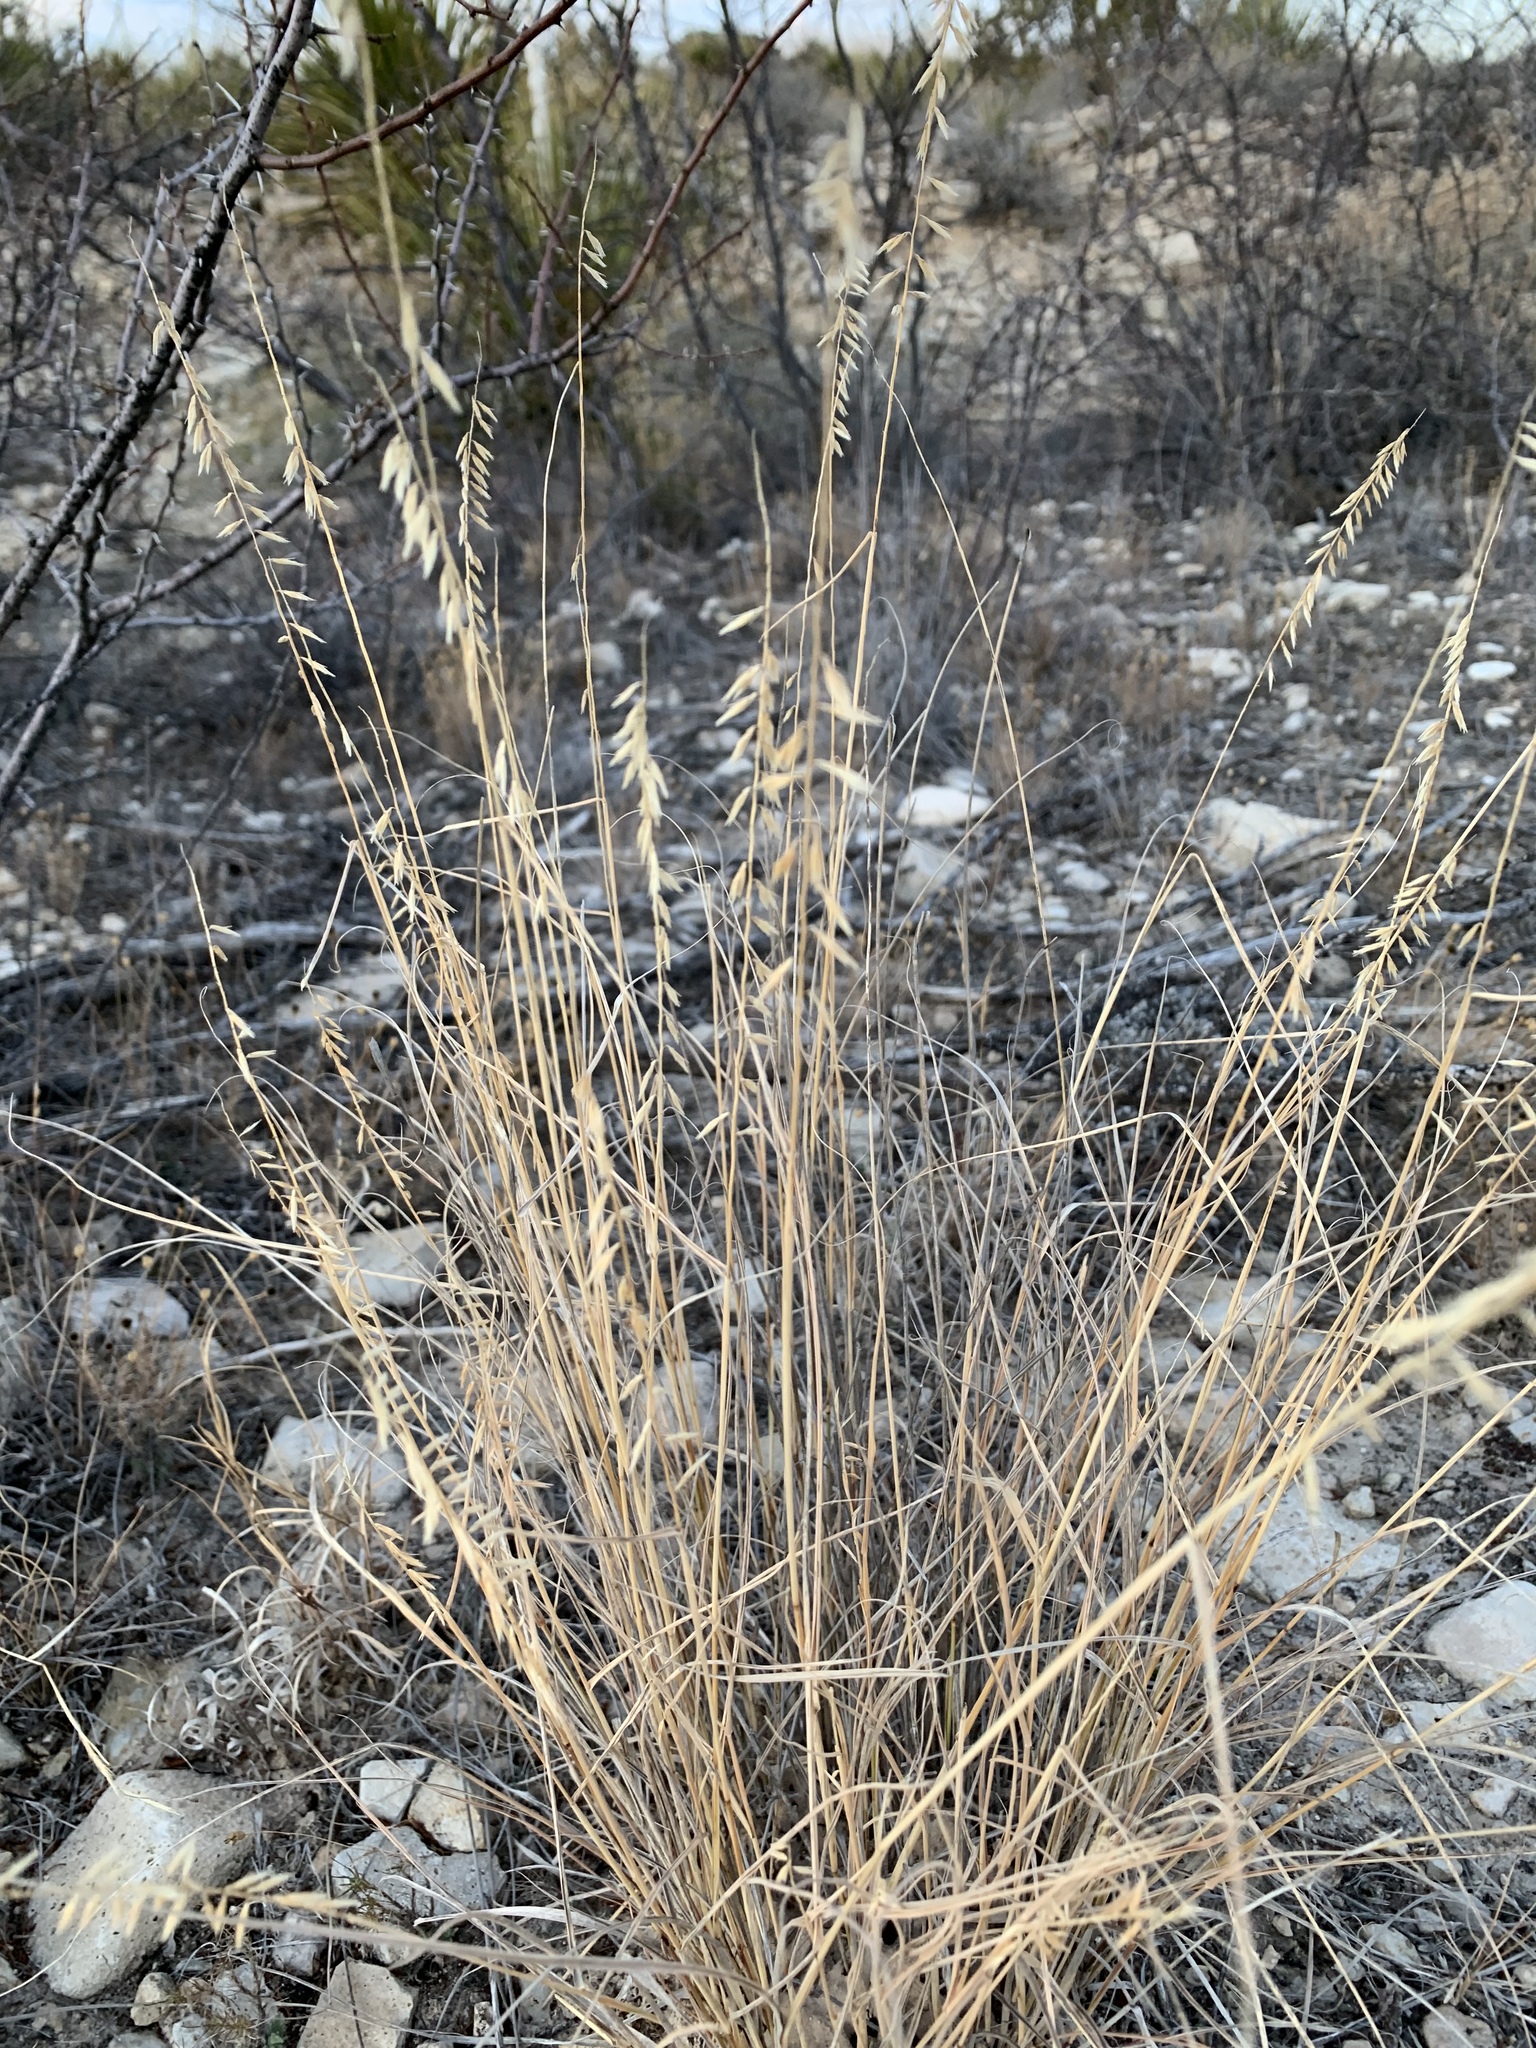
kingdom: Plantae
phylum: Tracheophyta
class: Liliopsida
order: Poales
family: Poaceae
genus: Bouteloua
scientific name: Bouteloua curtipendula
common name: Side-oats grama
